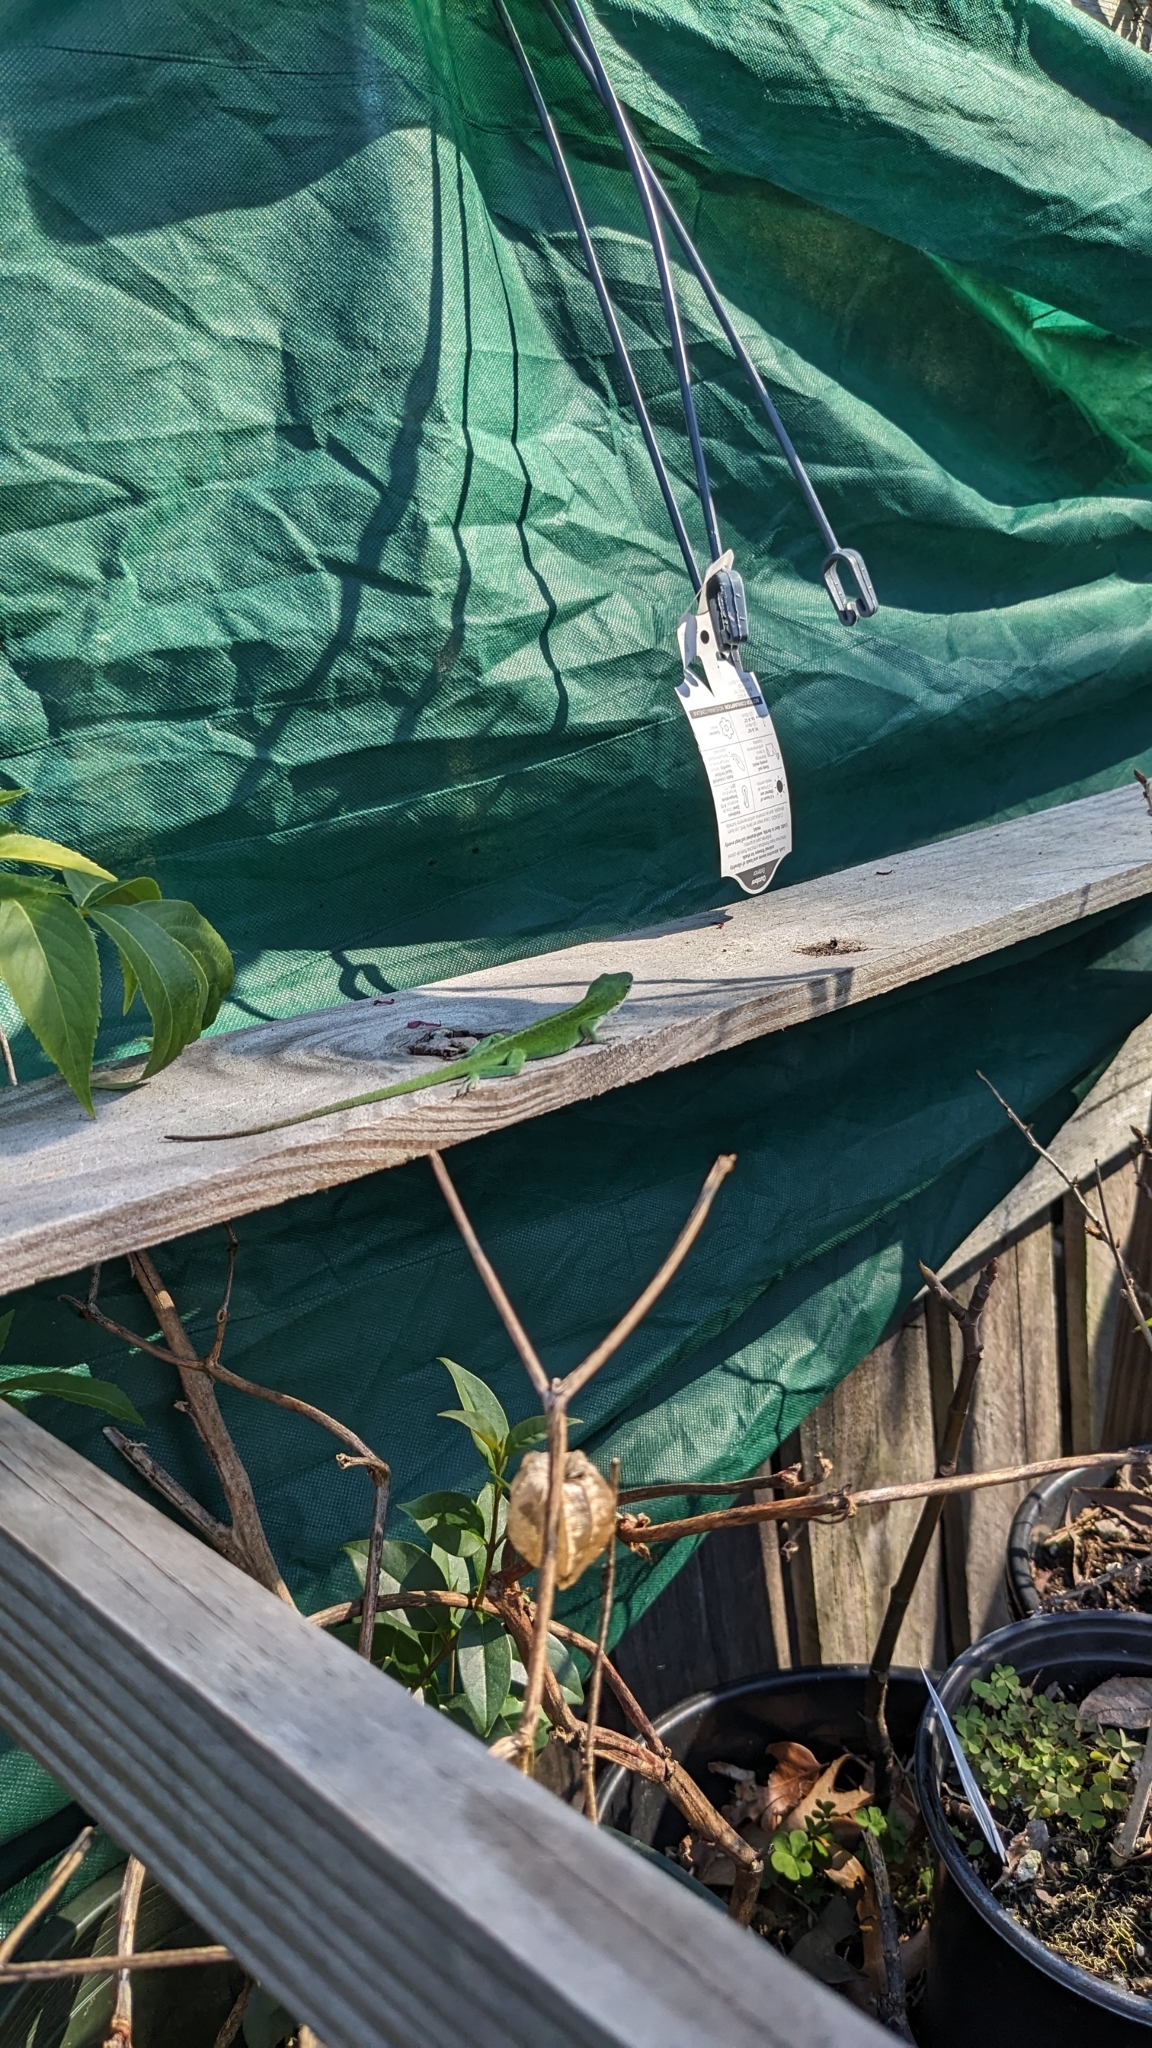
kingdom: Animalia
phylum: Chordata
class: Squamata
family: Dactyloidae
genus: Anolis
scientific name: Anolis carolinensis
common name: Green anole
